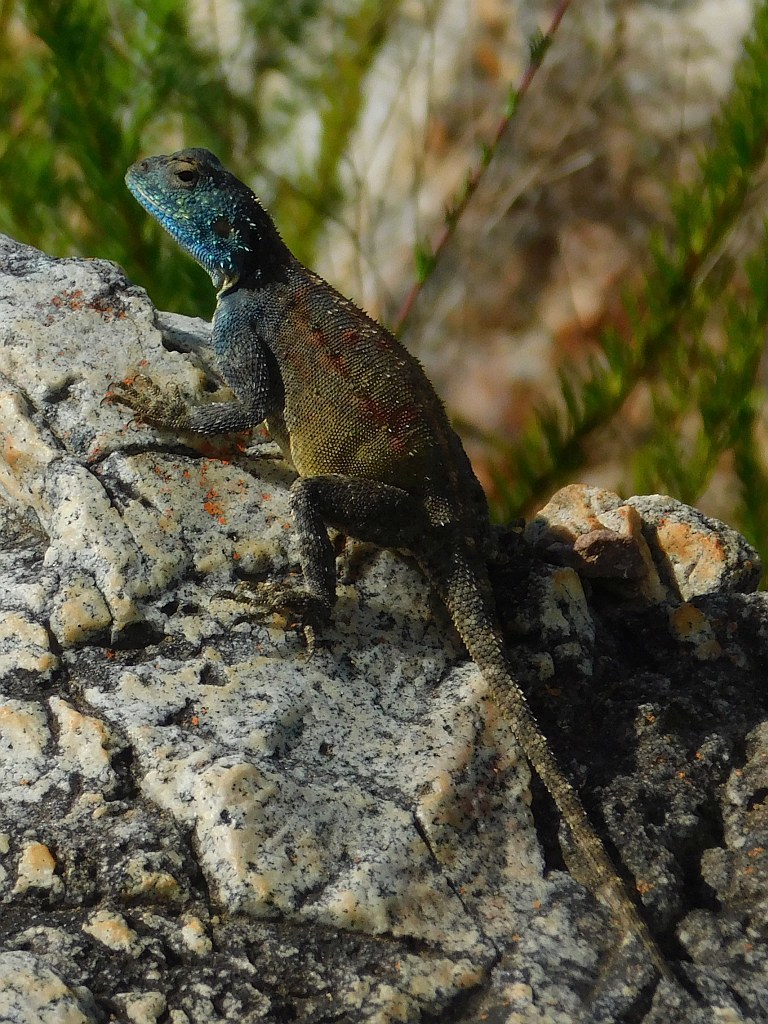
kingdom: Animalia
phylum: Chordata
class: Squamata
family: Agamidae
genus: Agama
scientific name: Agama atra
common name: Southern african rock agama
